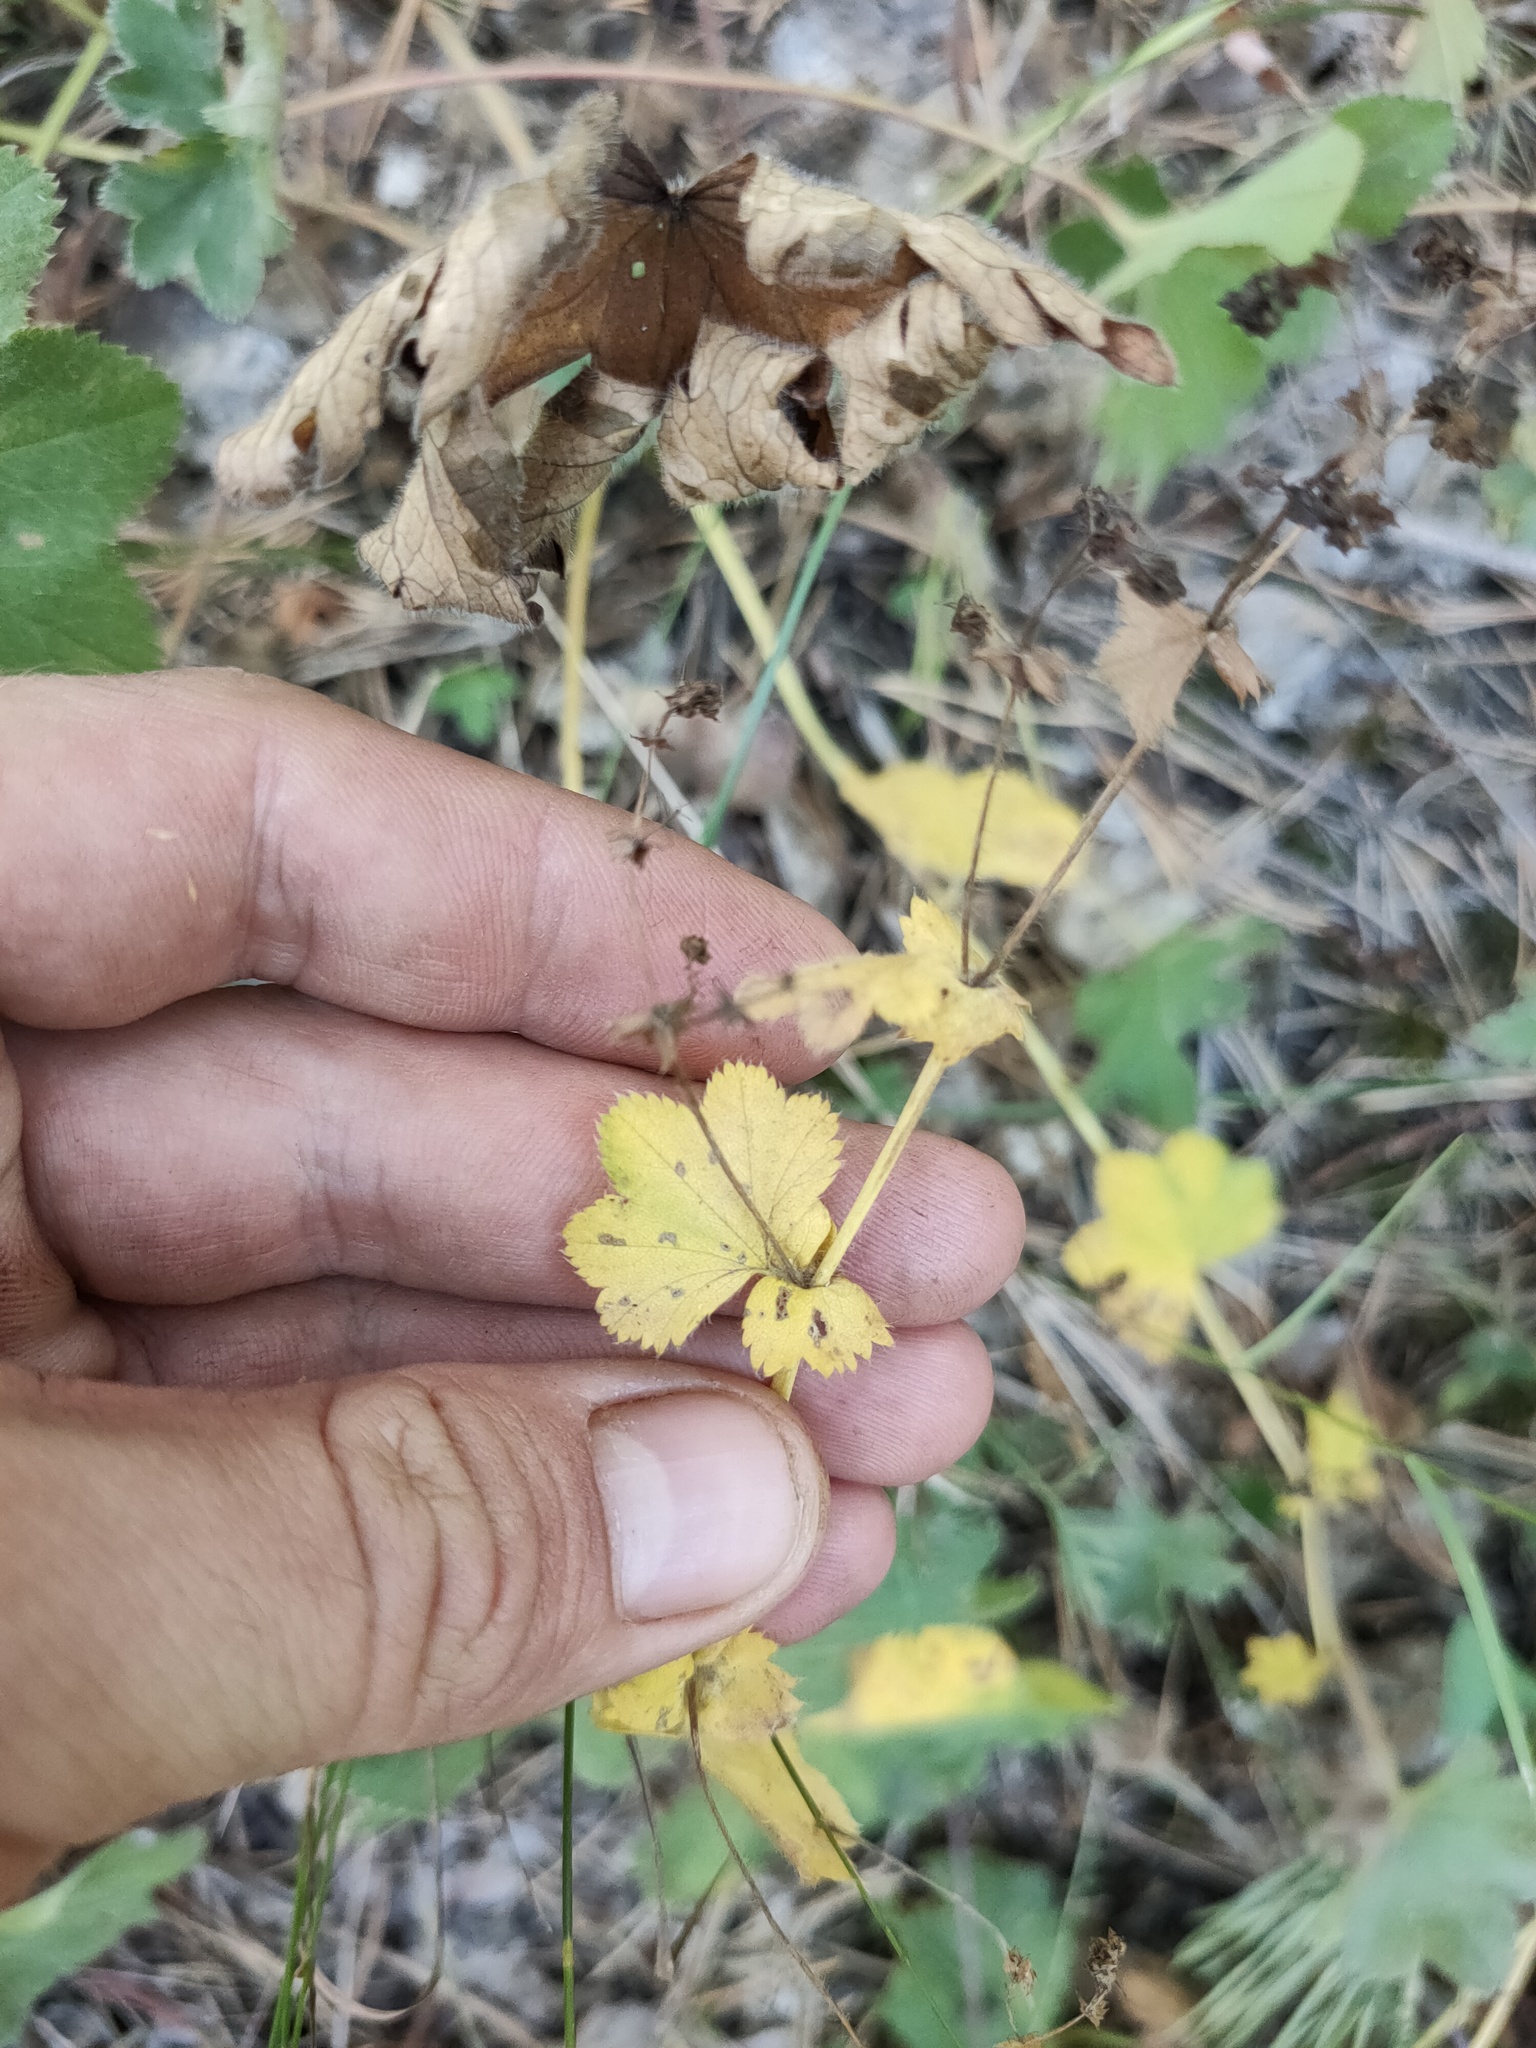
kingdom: Plantae
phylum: Tracheophyta
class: Magnoliopsida
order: Rosales
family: Rosaceae
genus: Alchemilla
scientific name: Alchemilla
